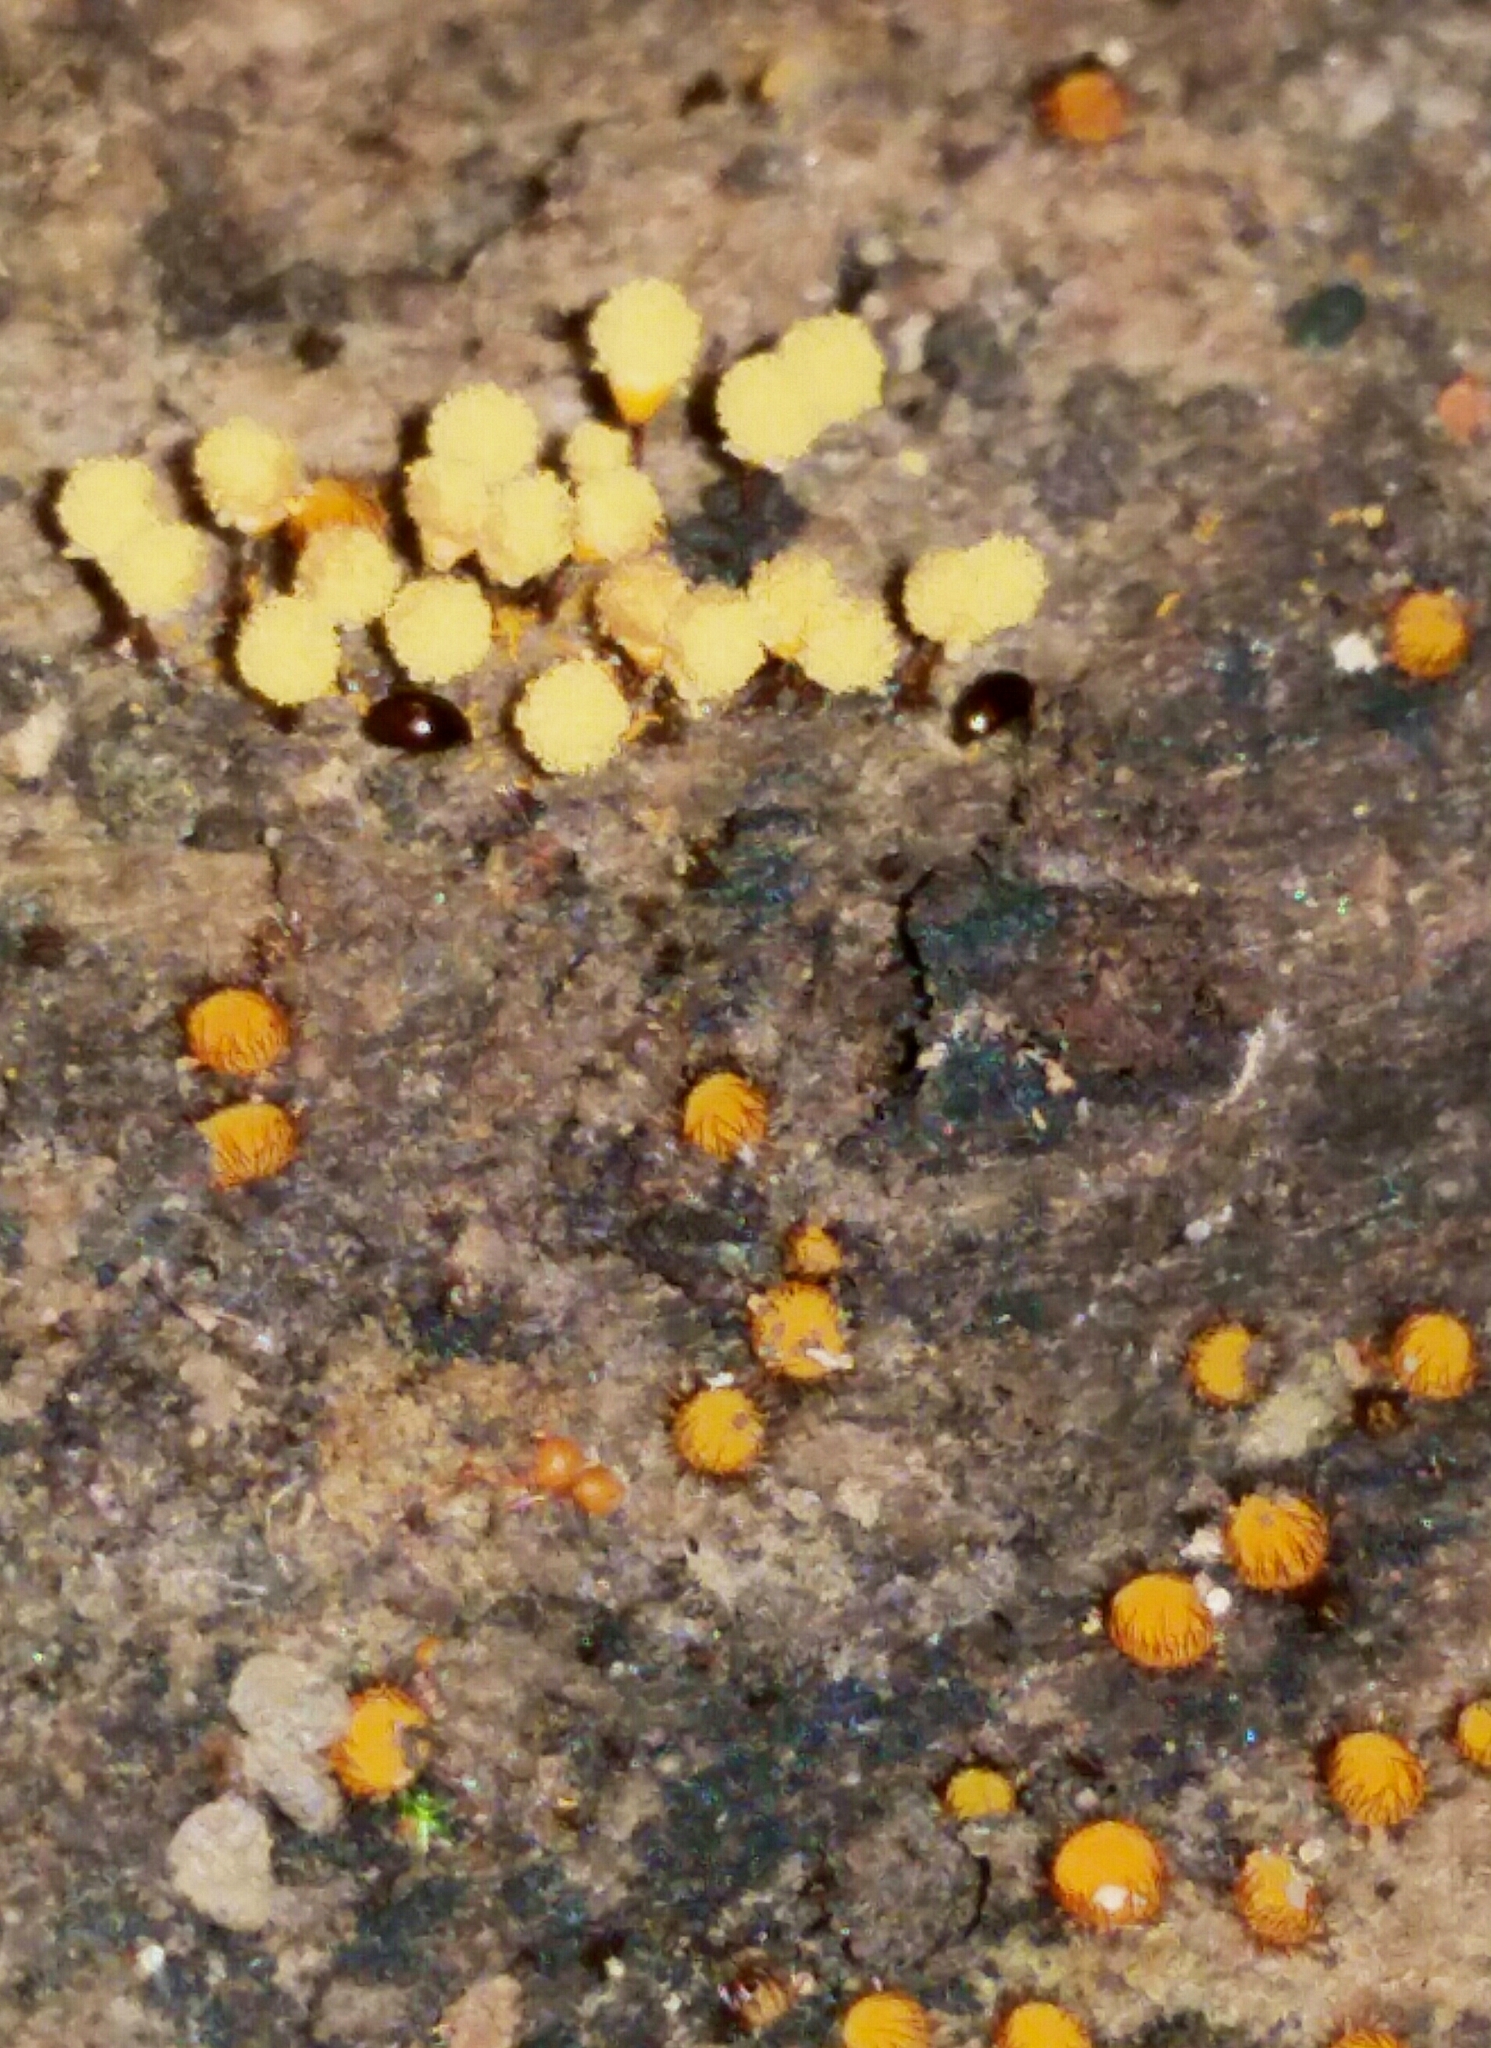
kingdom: Fungi
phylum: Ascomycota
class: Pezizomycetes
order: Pezizales
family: Pyronemataceae
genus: Scutellinia
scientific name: Scutellinia setosa
